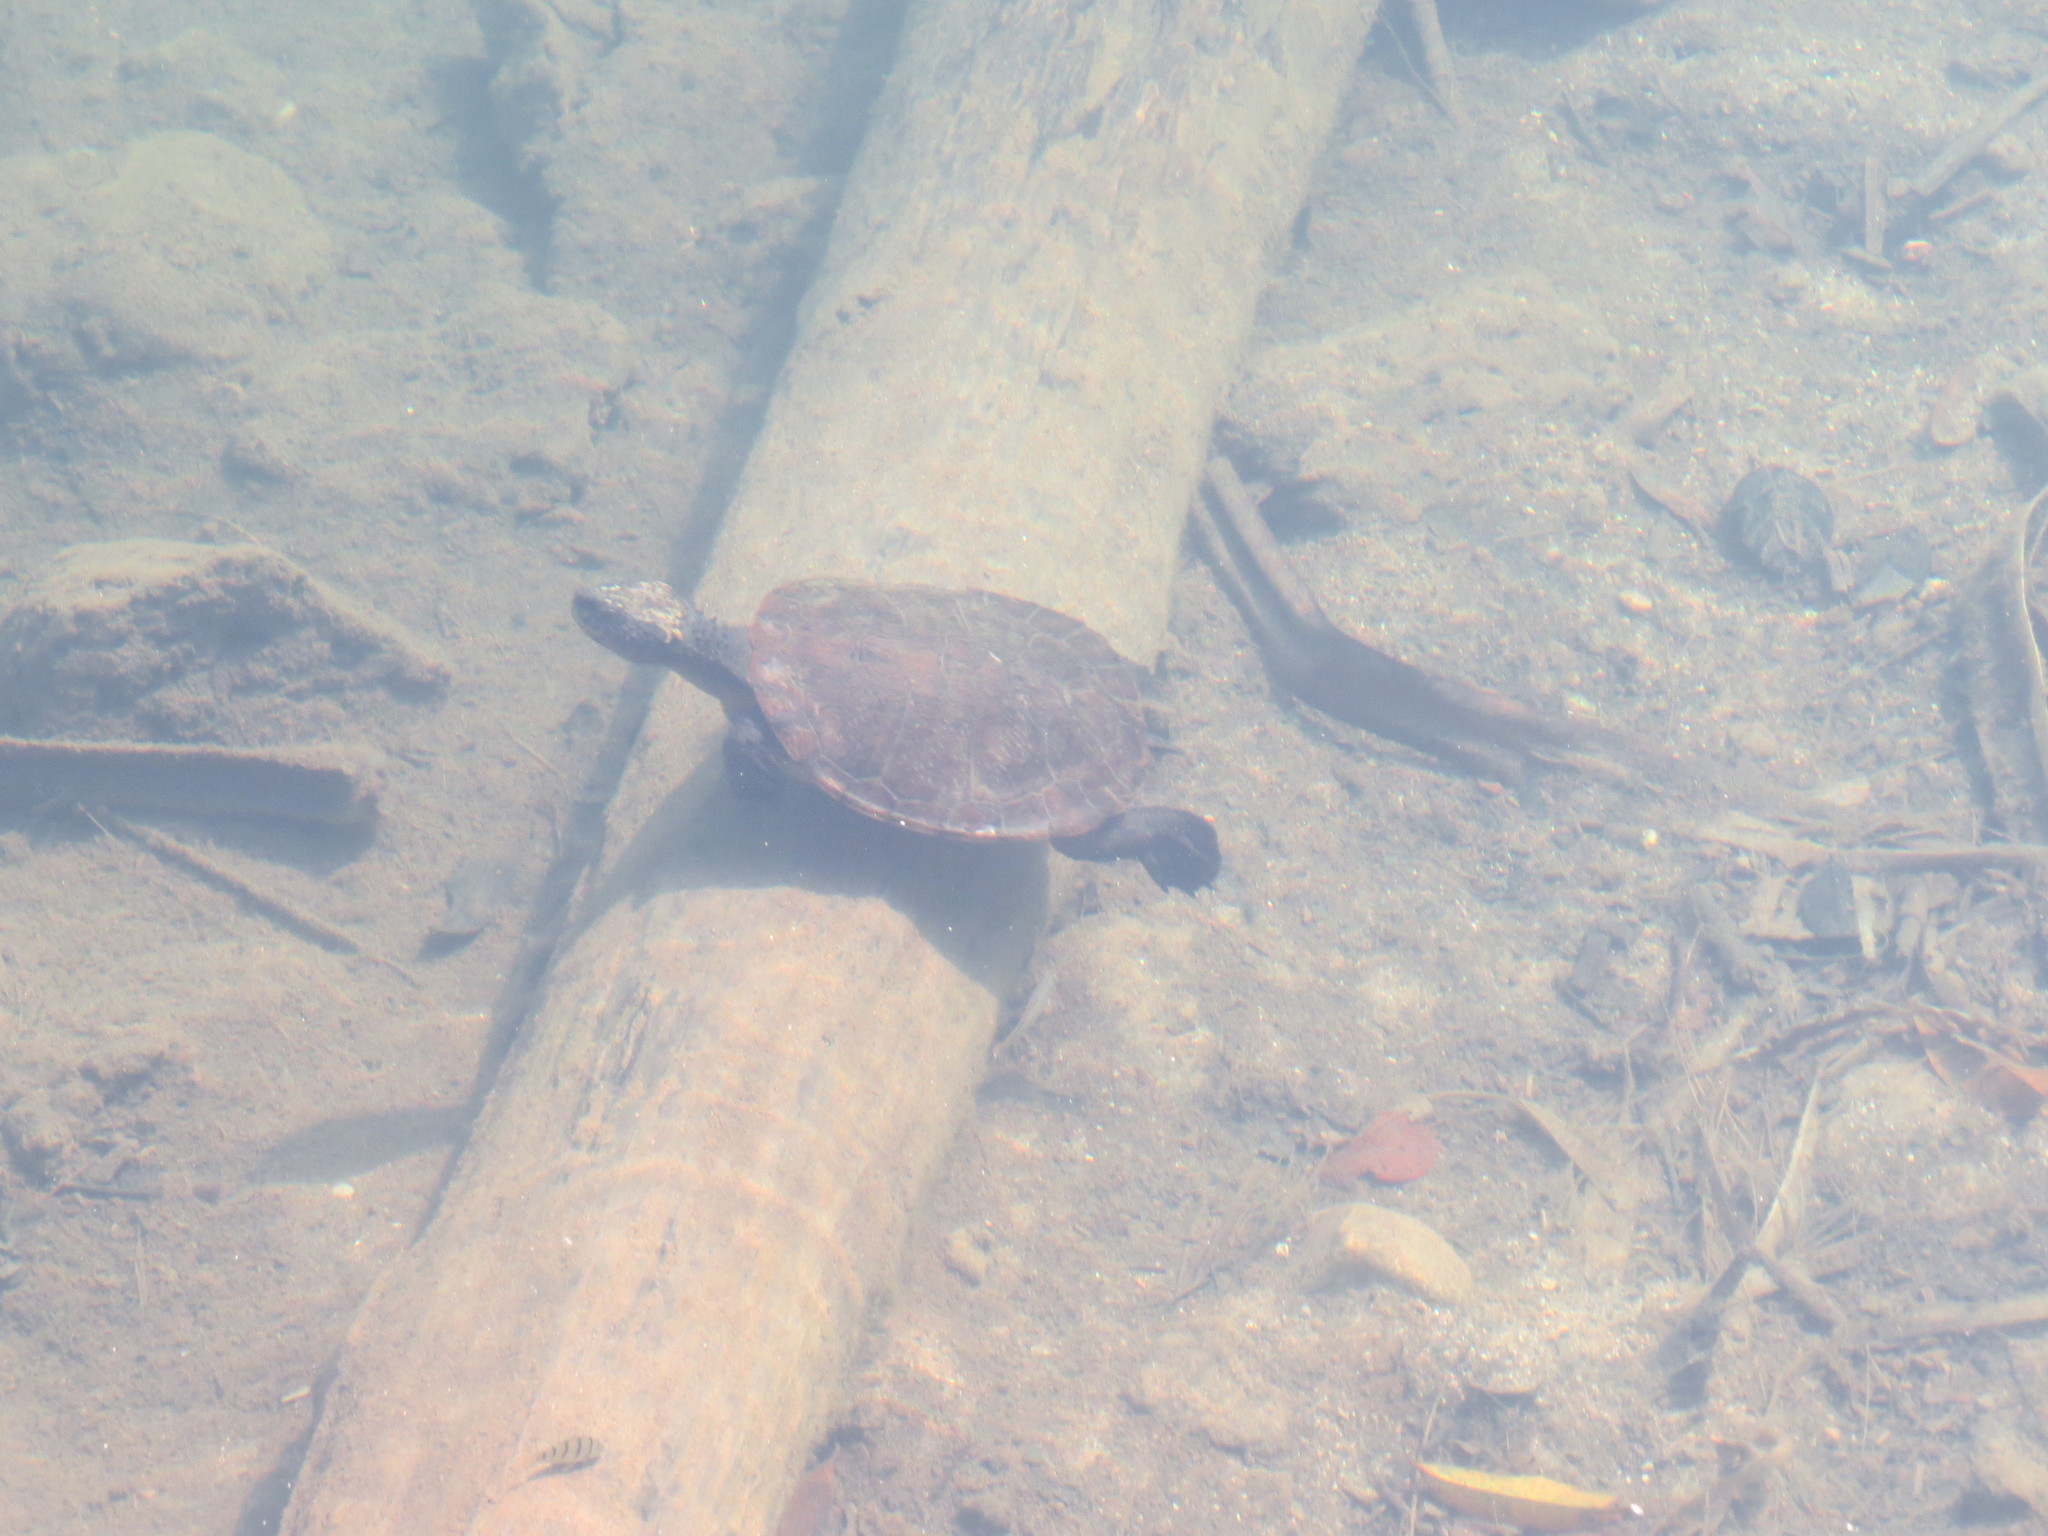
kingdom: Animalia
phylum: Chordata
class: Testudines
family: Chelidae
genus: Myuchelys
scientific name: Myuchelys latisternum
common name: Serrated snapping turtle
